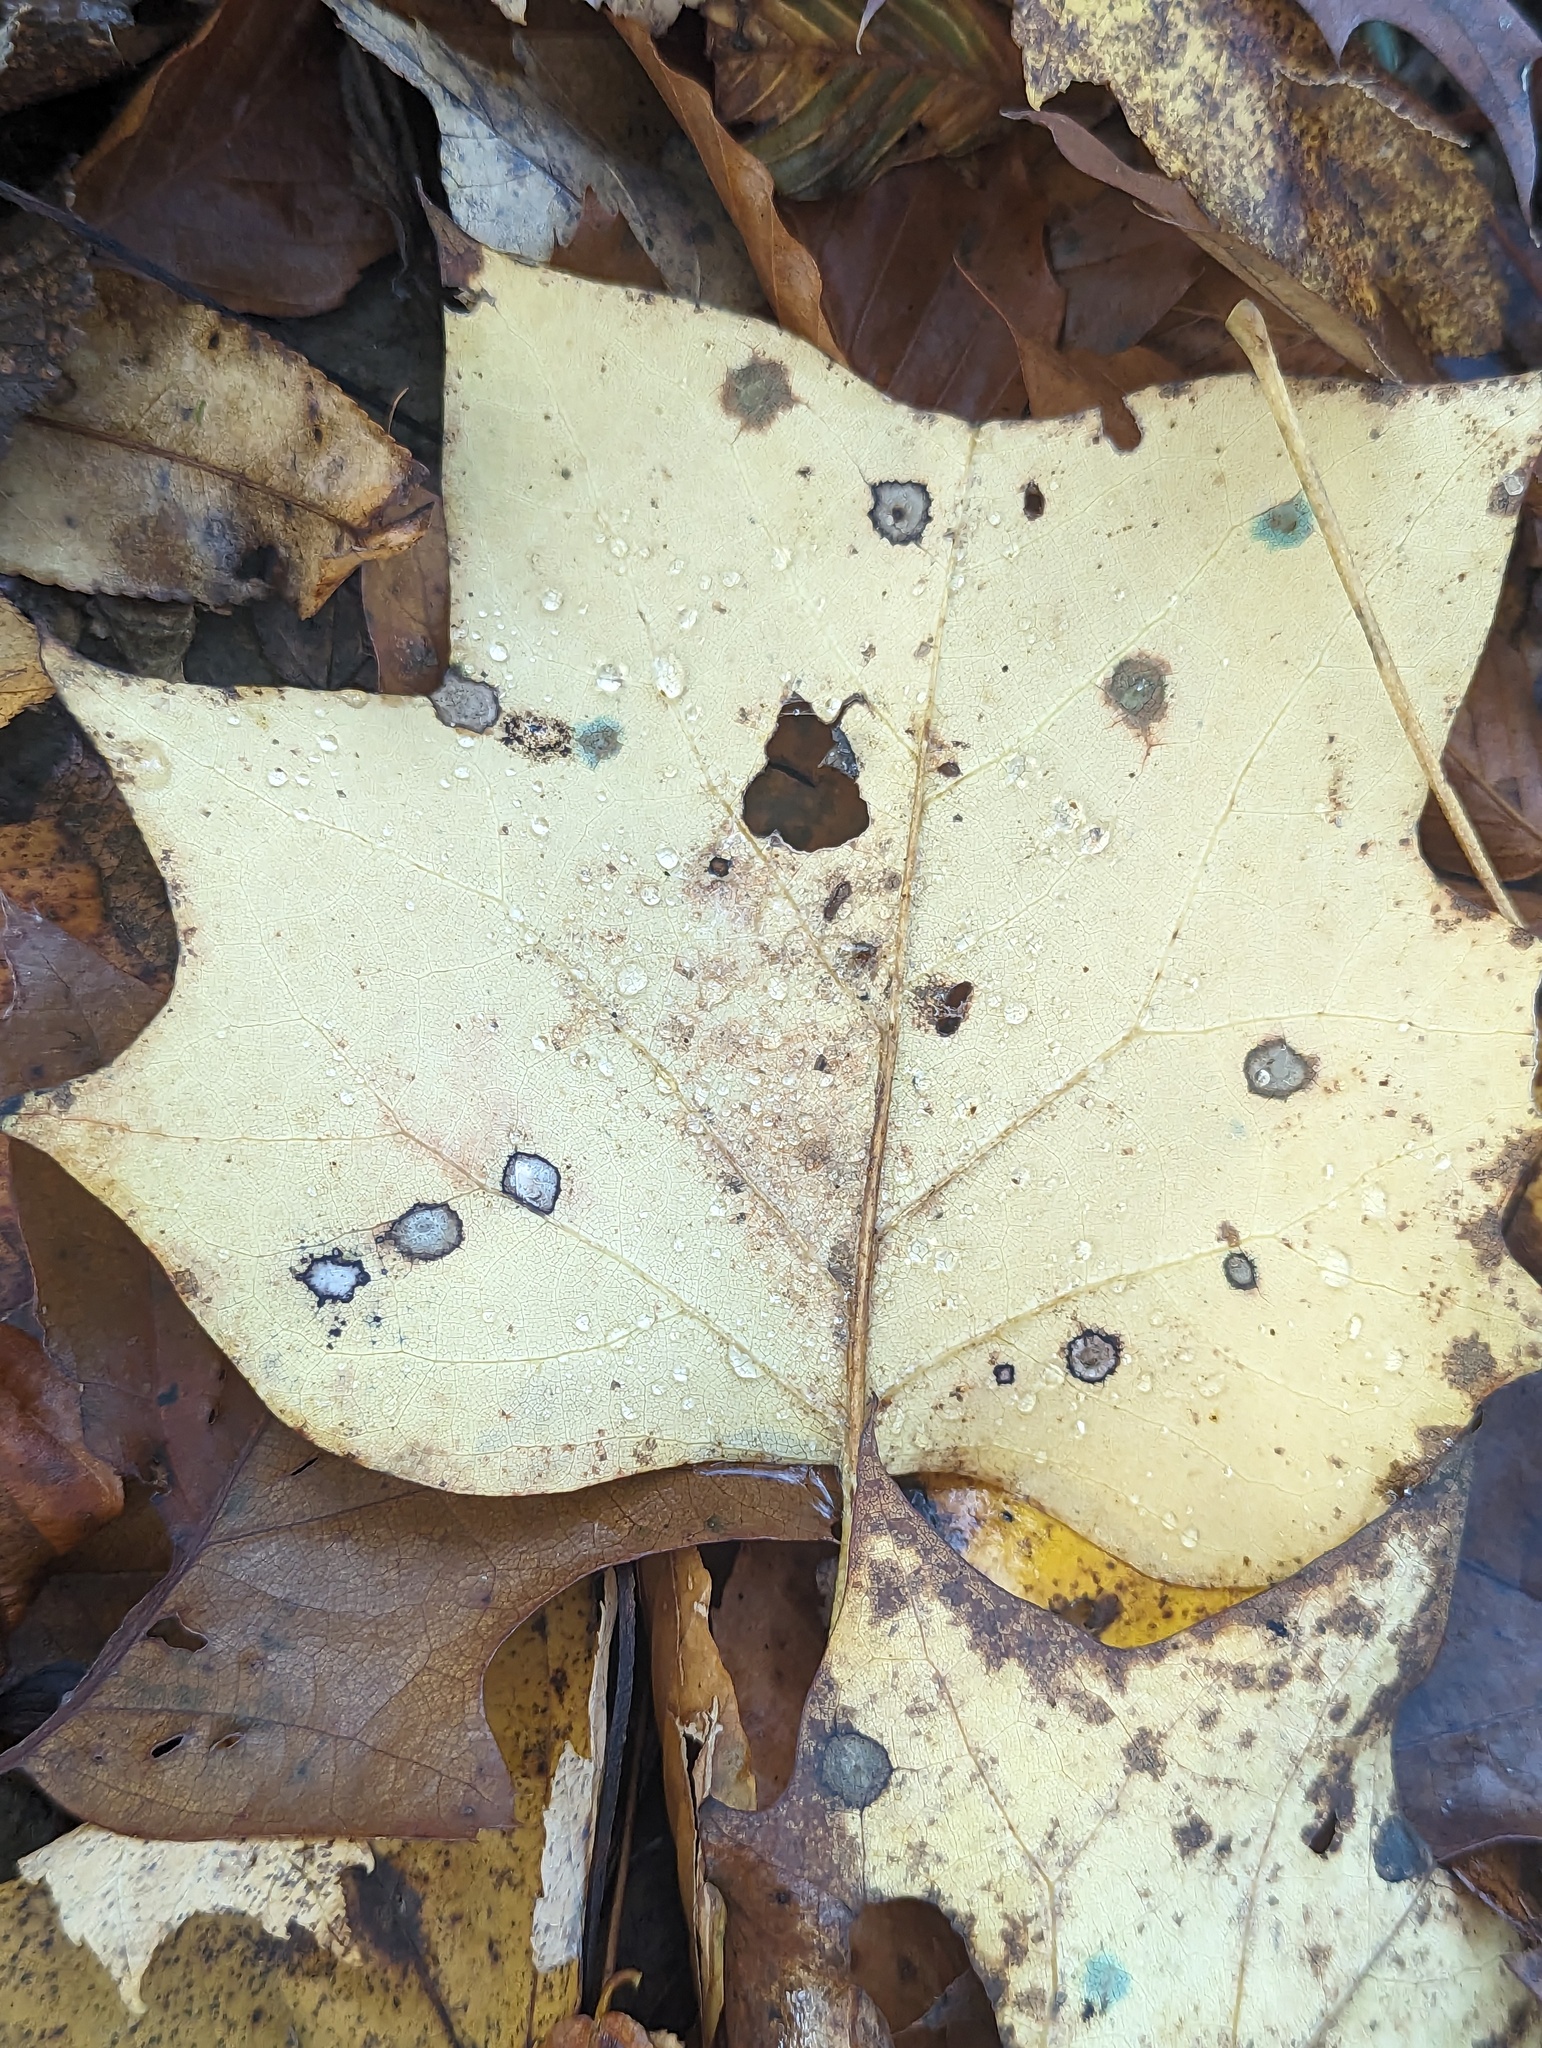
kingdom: Plantae
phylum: Tracheophyta
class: Magnoliopsida
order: Magnoliales
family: Magnoliaceae
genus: Liriodendron
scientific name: Liriodendron tulipifera
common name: Tulip tree
